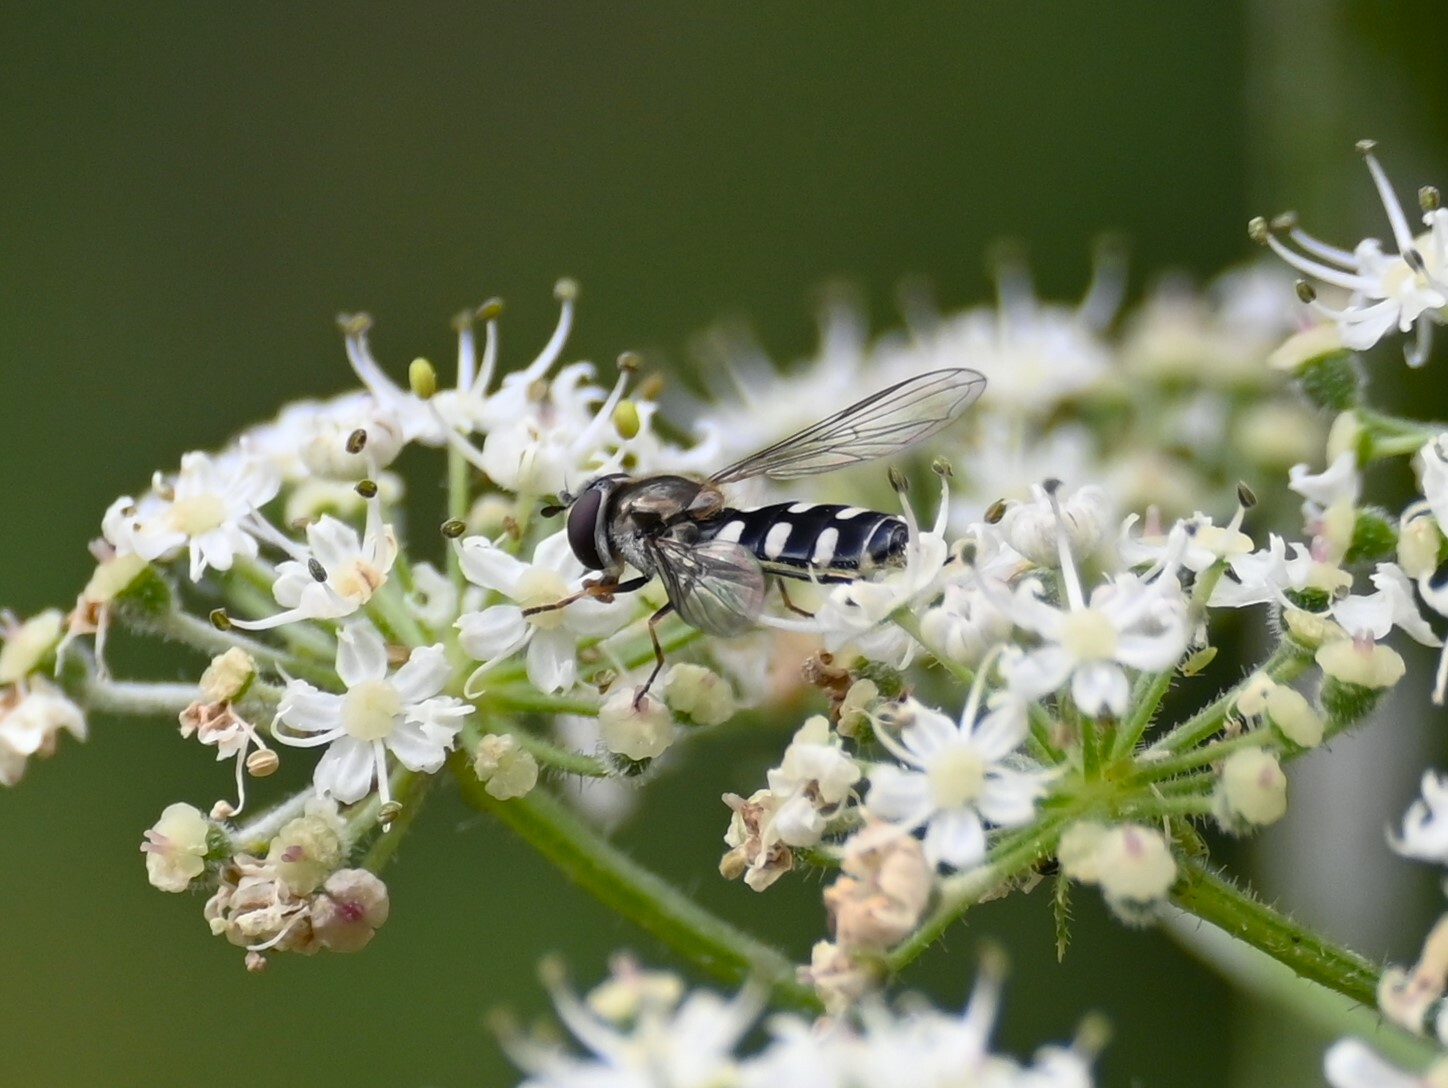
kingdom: Animalia
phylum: Arthropoda
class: Insecta
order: Diptera
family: Syrphidae
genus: Melangyna
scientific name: Melangyna umbellatarum
